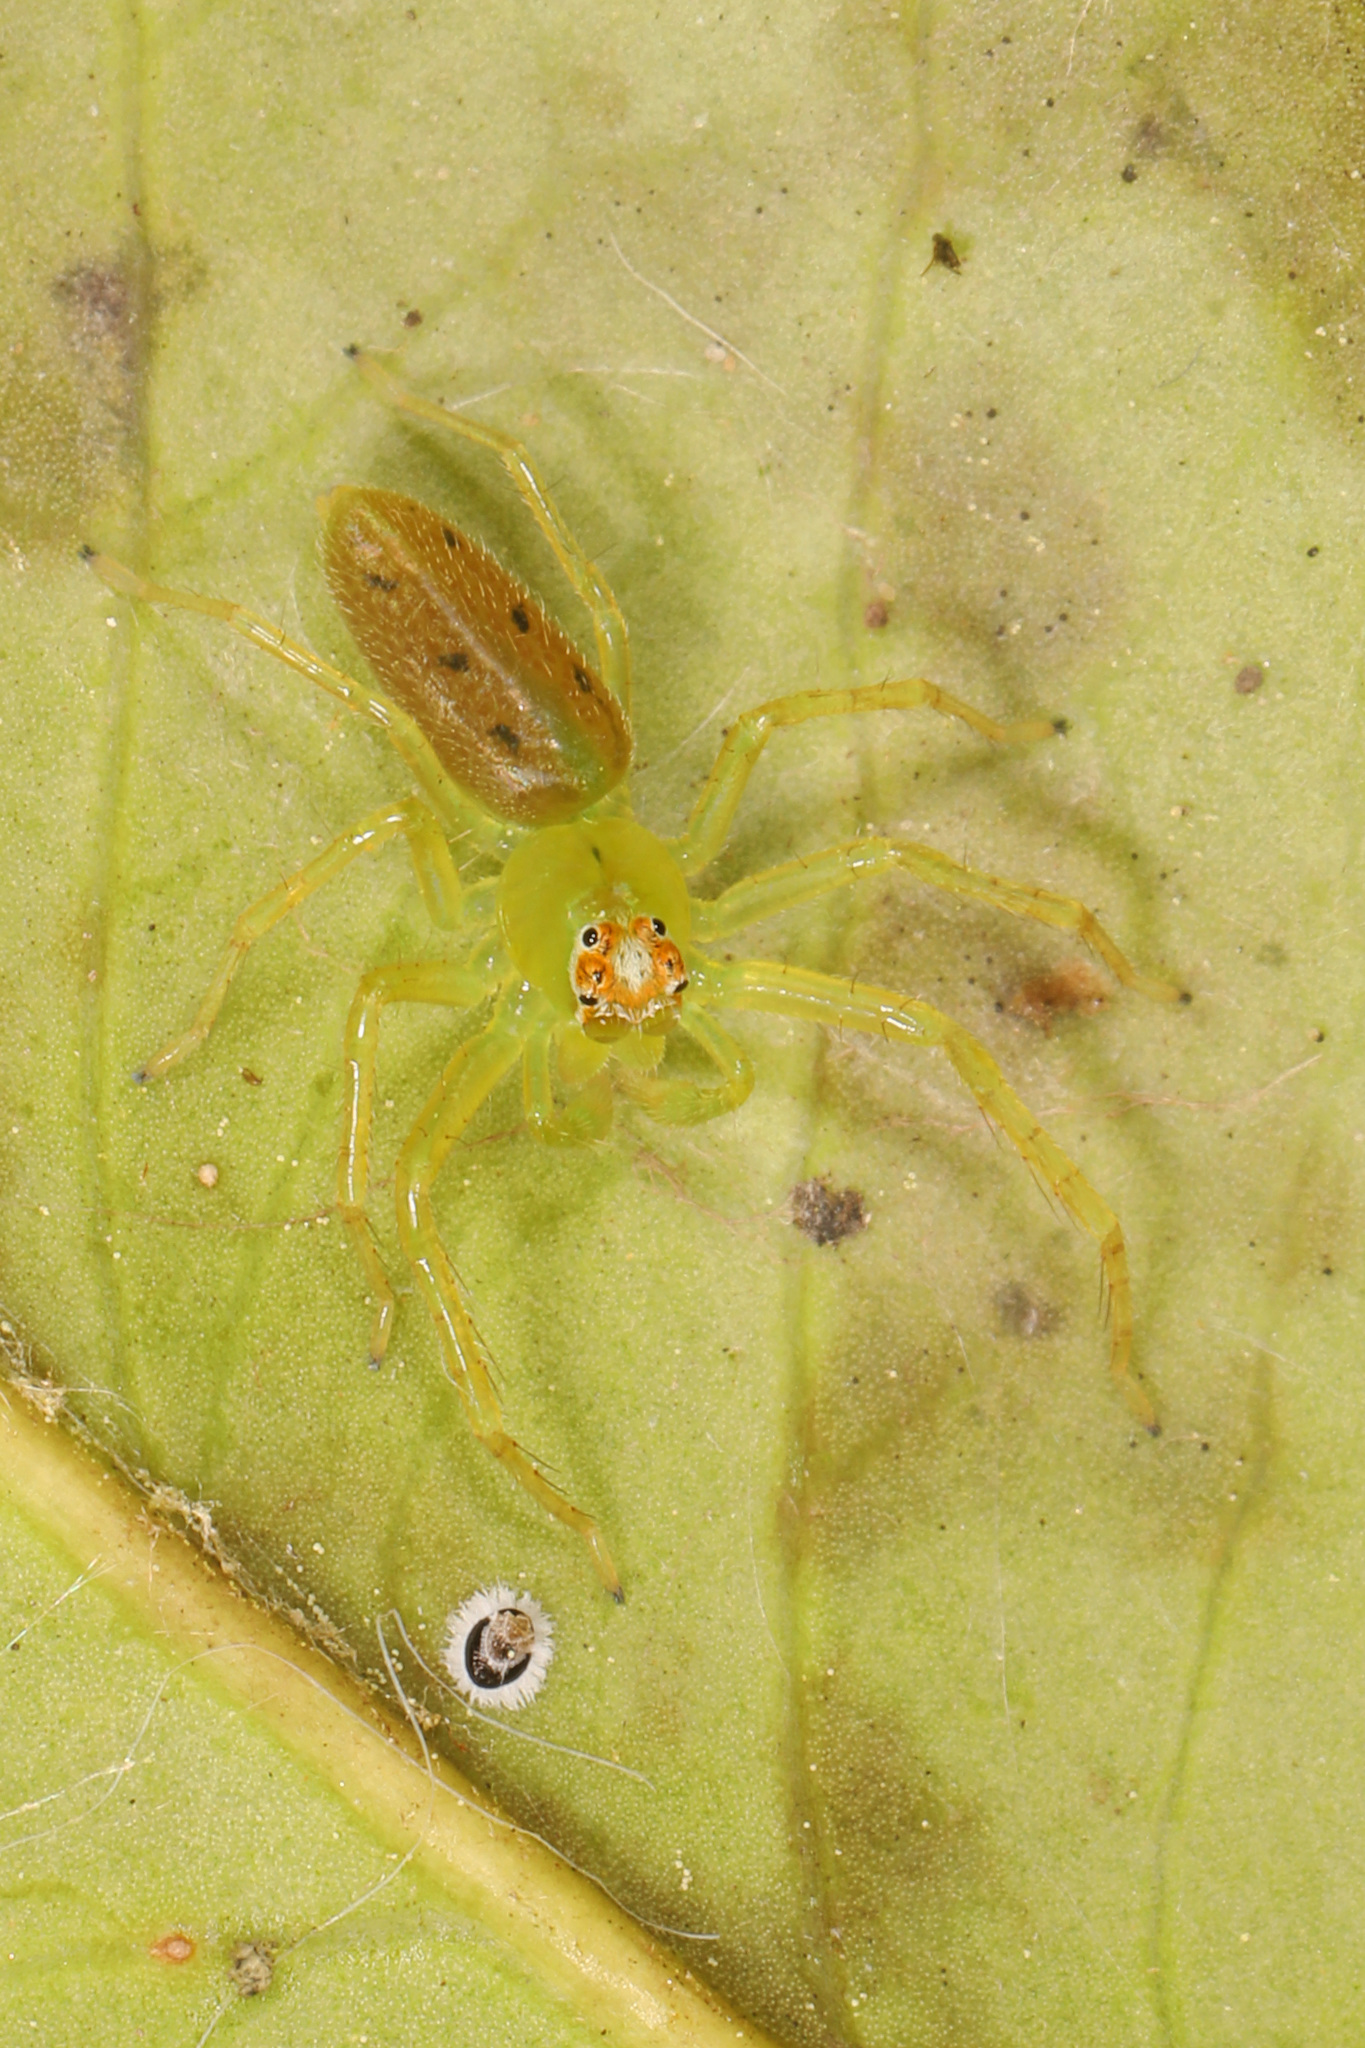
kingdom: Animalia
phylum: Arthropoda
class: Arachnida
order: Araneae
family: Salticidae
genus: Lyssomanes
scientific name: Lyssomanes viridis
